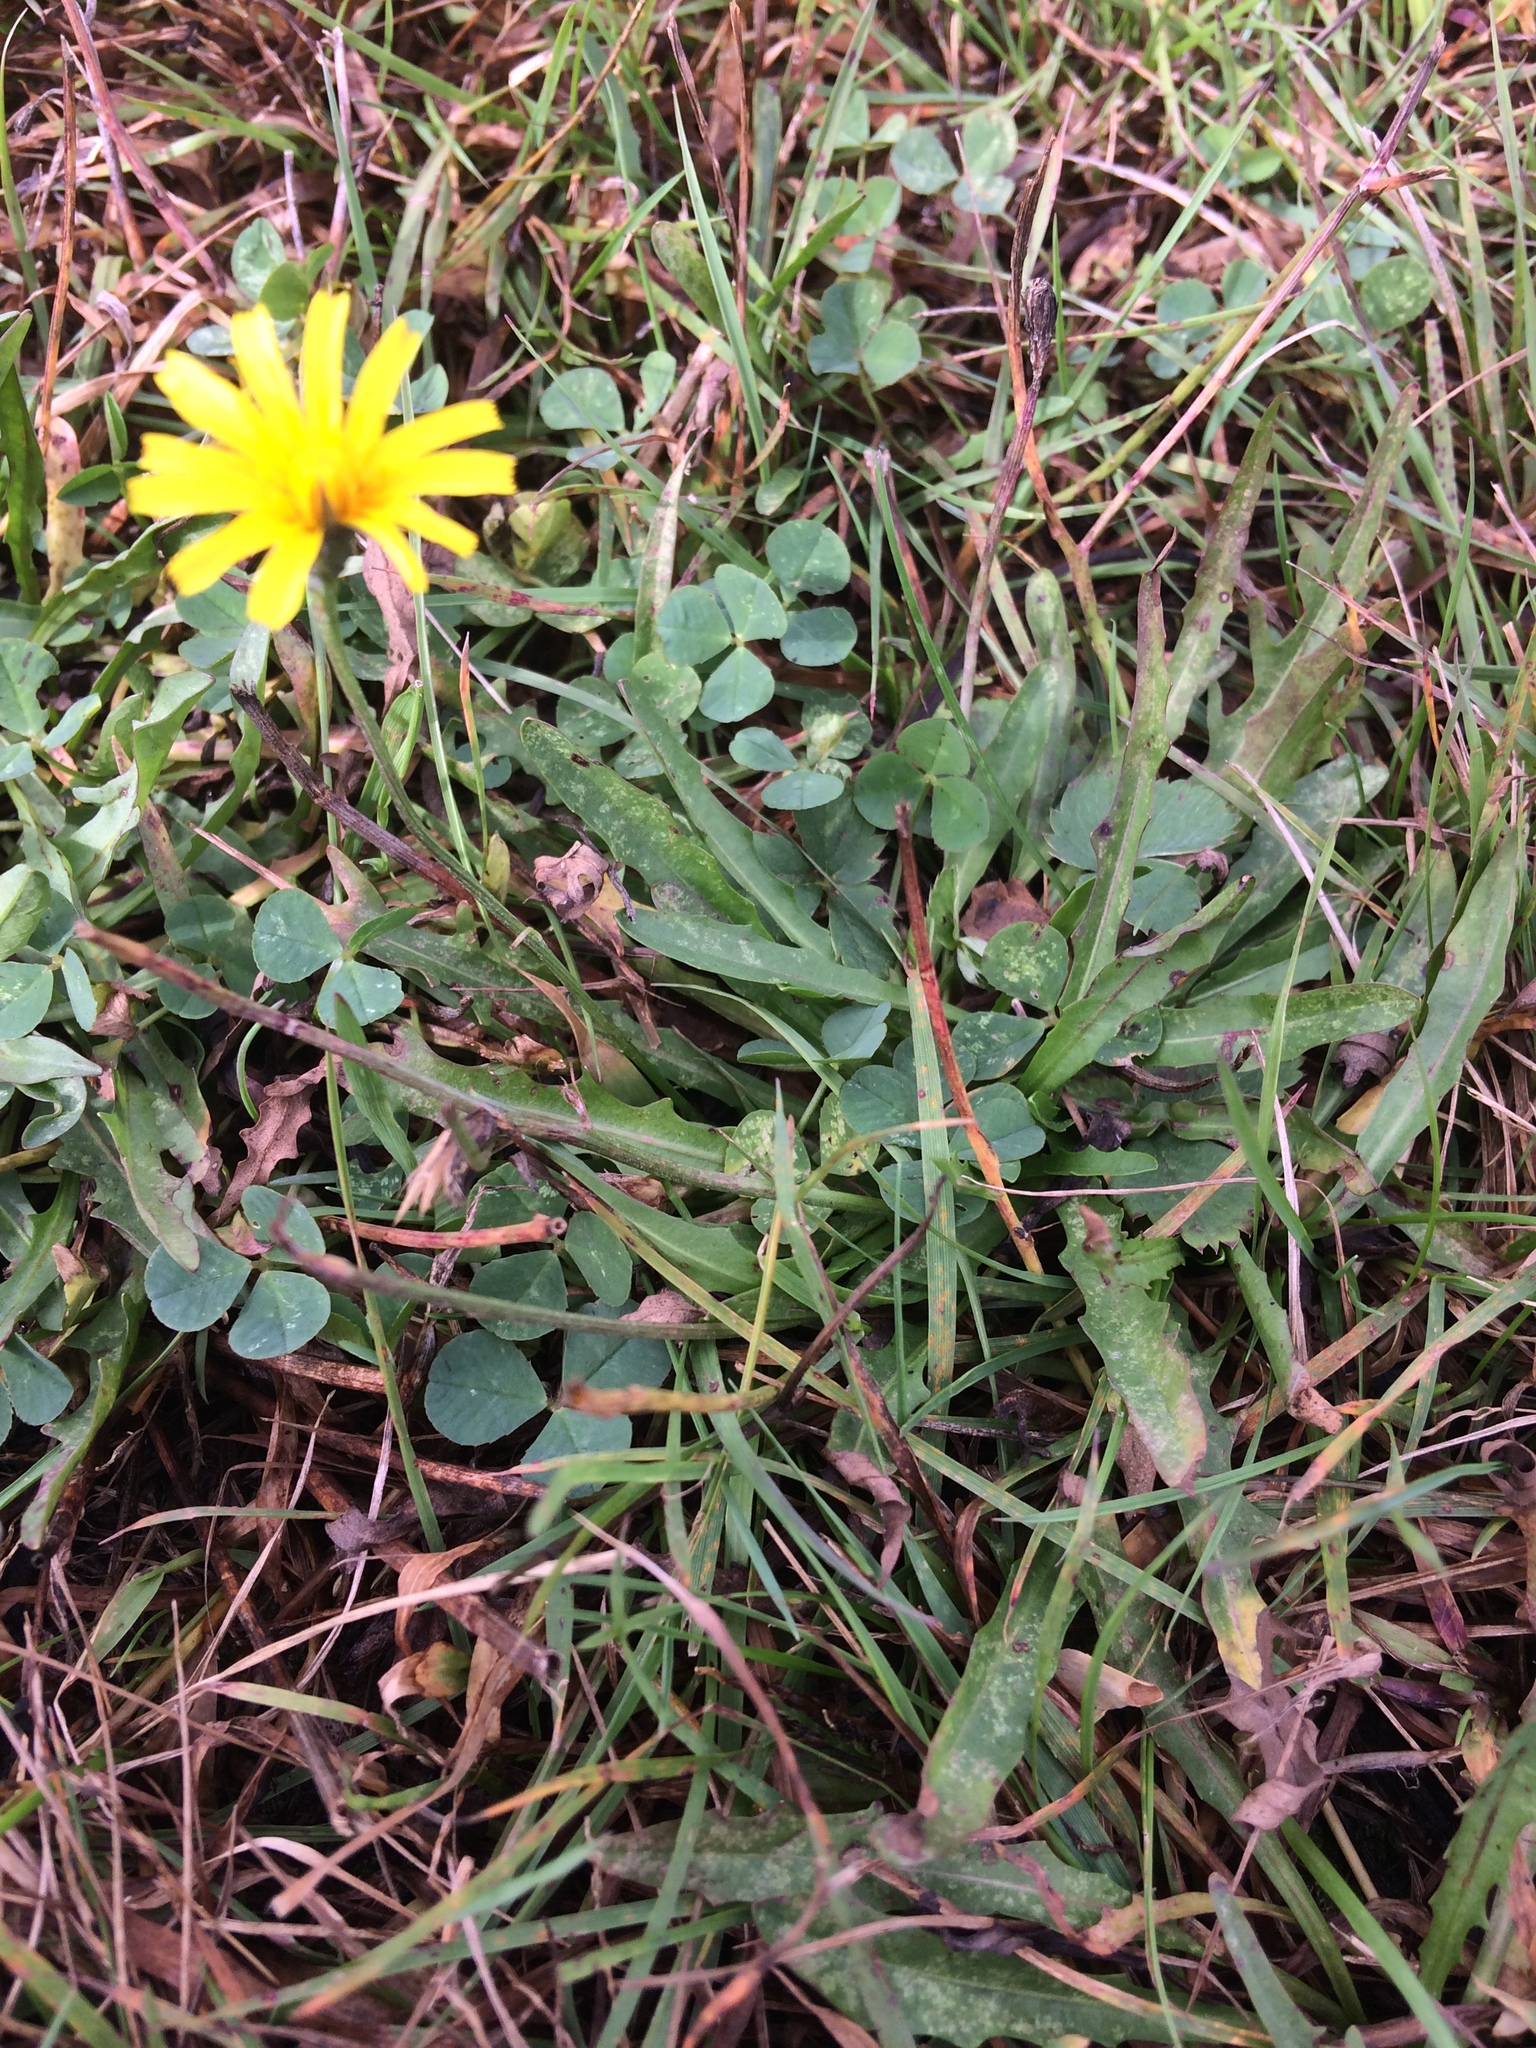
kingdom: Plantae
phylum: Tracheophyta
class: Magnoliopsida
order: Asterales
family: Asteraceae
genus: Scorzoneroides
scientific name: Scorzoneroides autumnalis
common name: Autumn hawkbit
